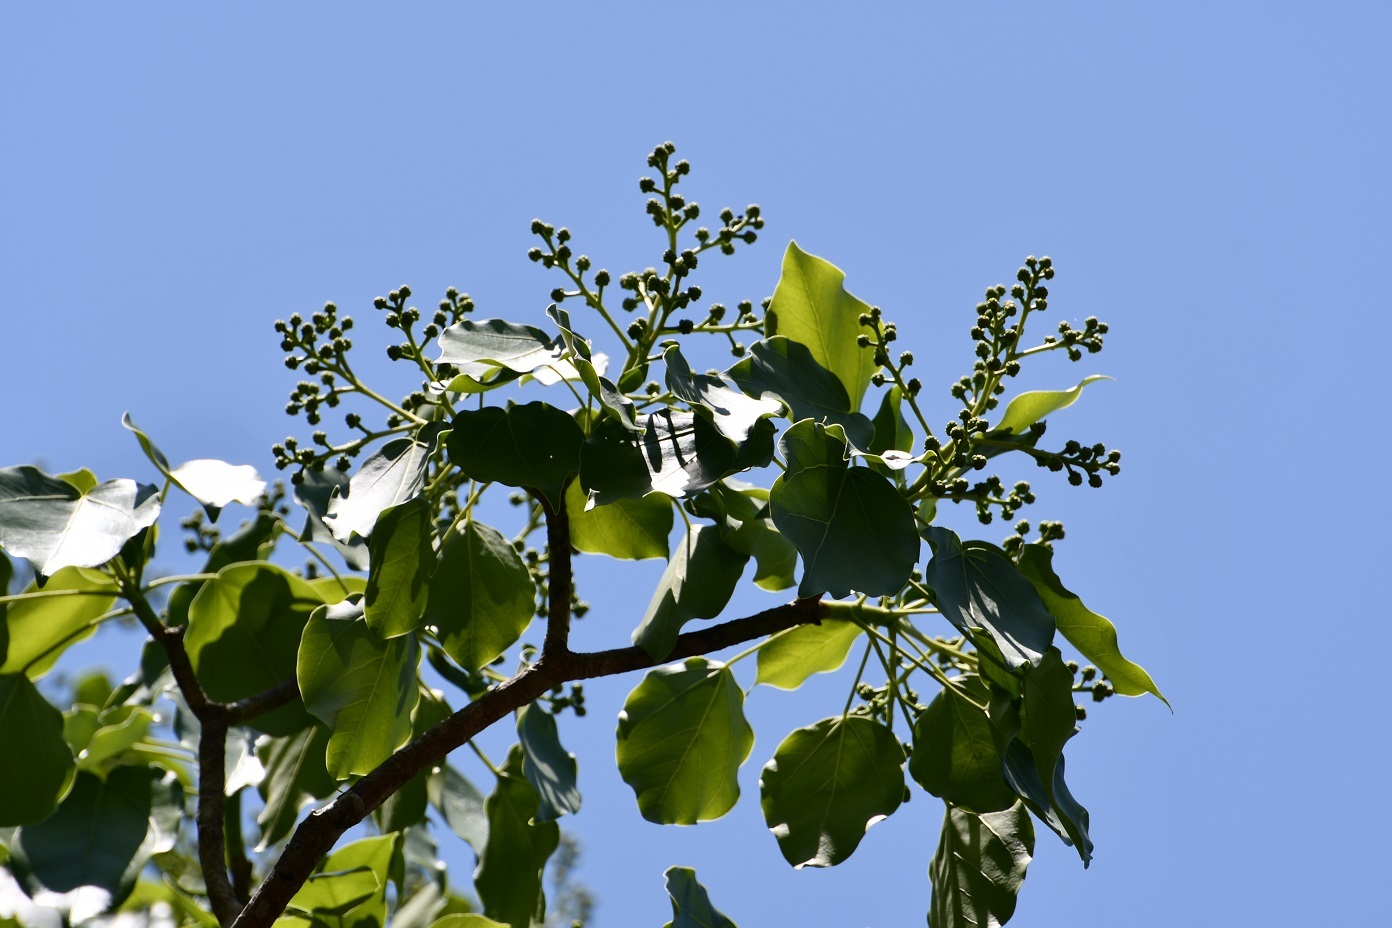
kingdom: Plantae
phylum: Tracheophyta
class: Magnoliopsida
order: Apiales
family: Araliaceae
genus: Oreopanax
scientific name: Oreopanax platyphyllus
